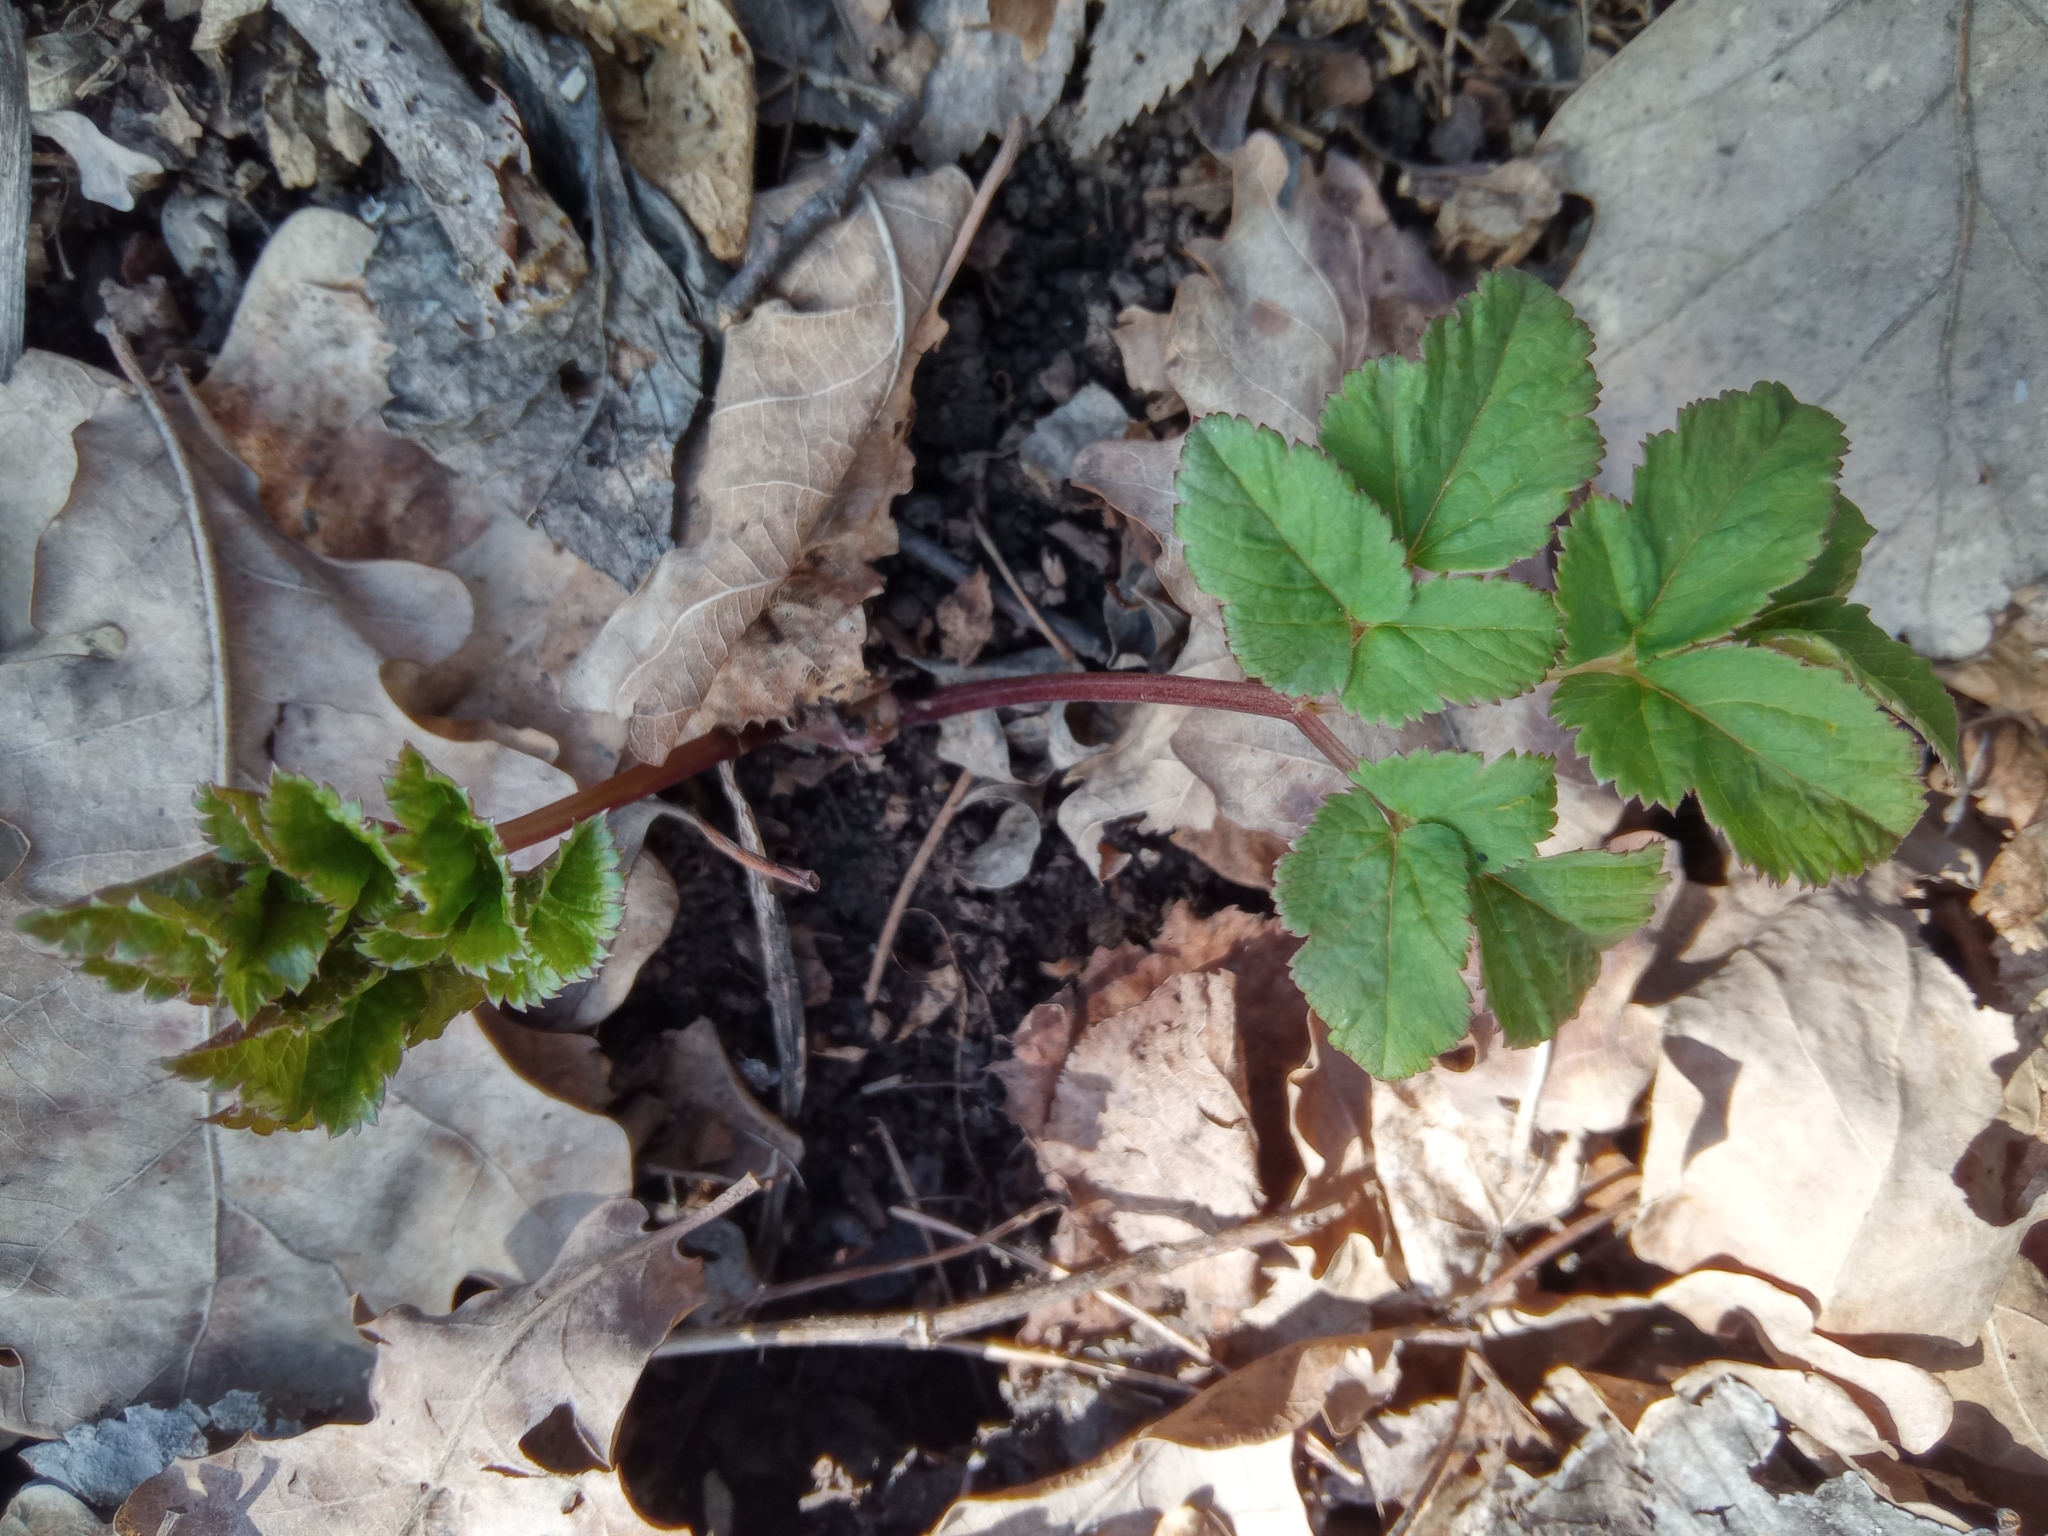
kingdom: Plantae
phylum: Tracheophyta
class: Magnoliopsida
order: Apiales
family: Apiaceae
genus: Aegopodium
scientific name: Aegopodium podagraria
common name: Ground-elder
